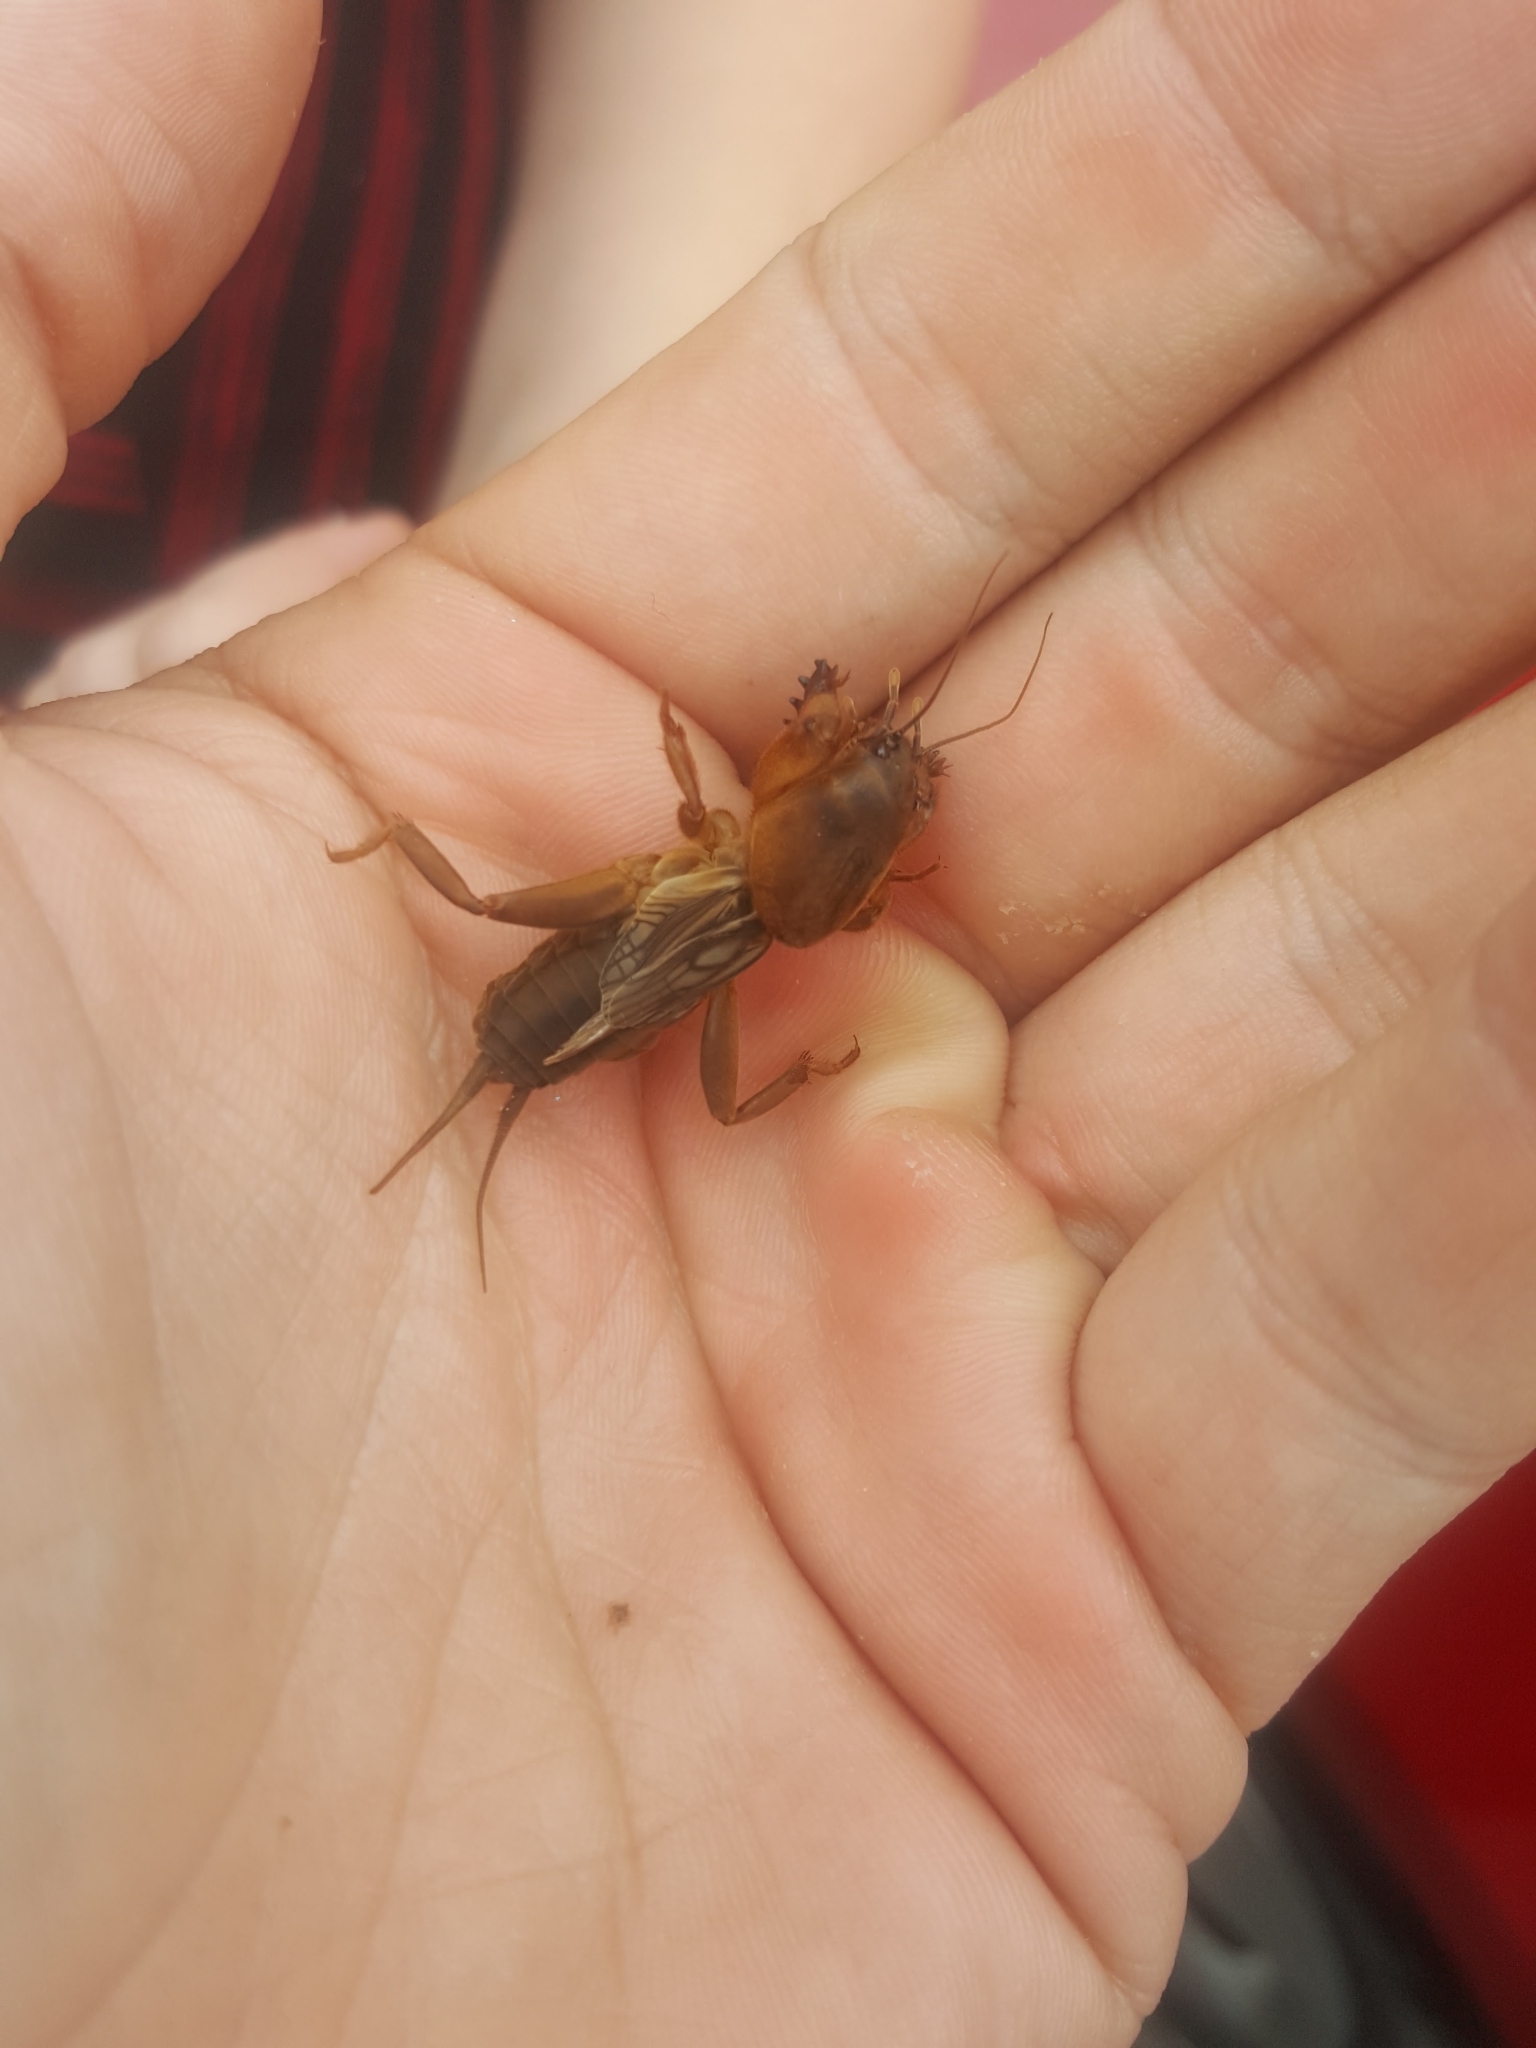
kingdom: Animalia
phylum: Arthropoda
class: Insecta
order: Orthoptera
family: Gryllotalpidae
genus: Neocurtilla
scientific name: Neocurtilla hexadactyla
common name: Northern mole cricket
